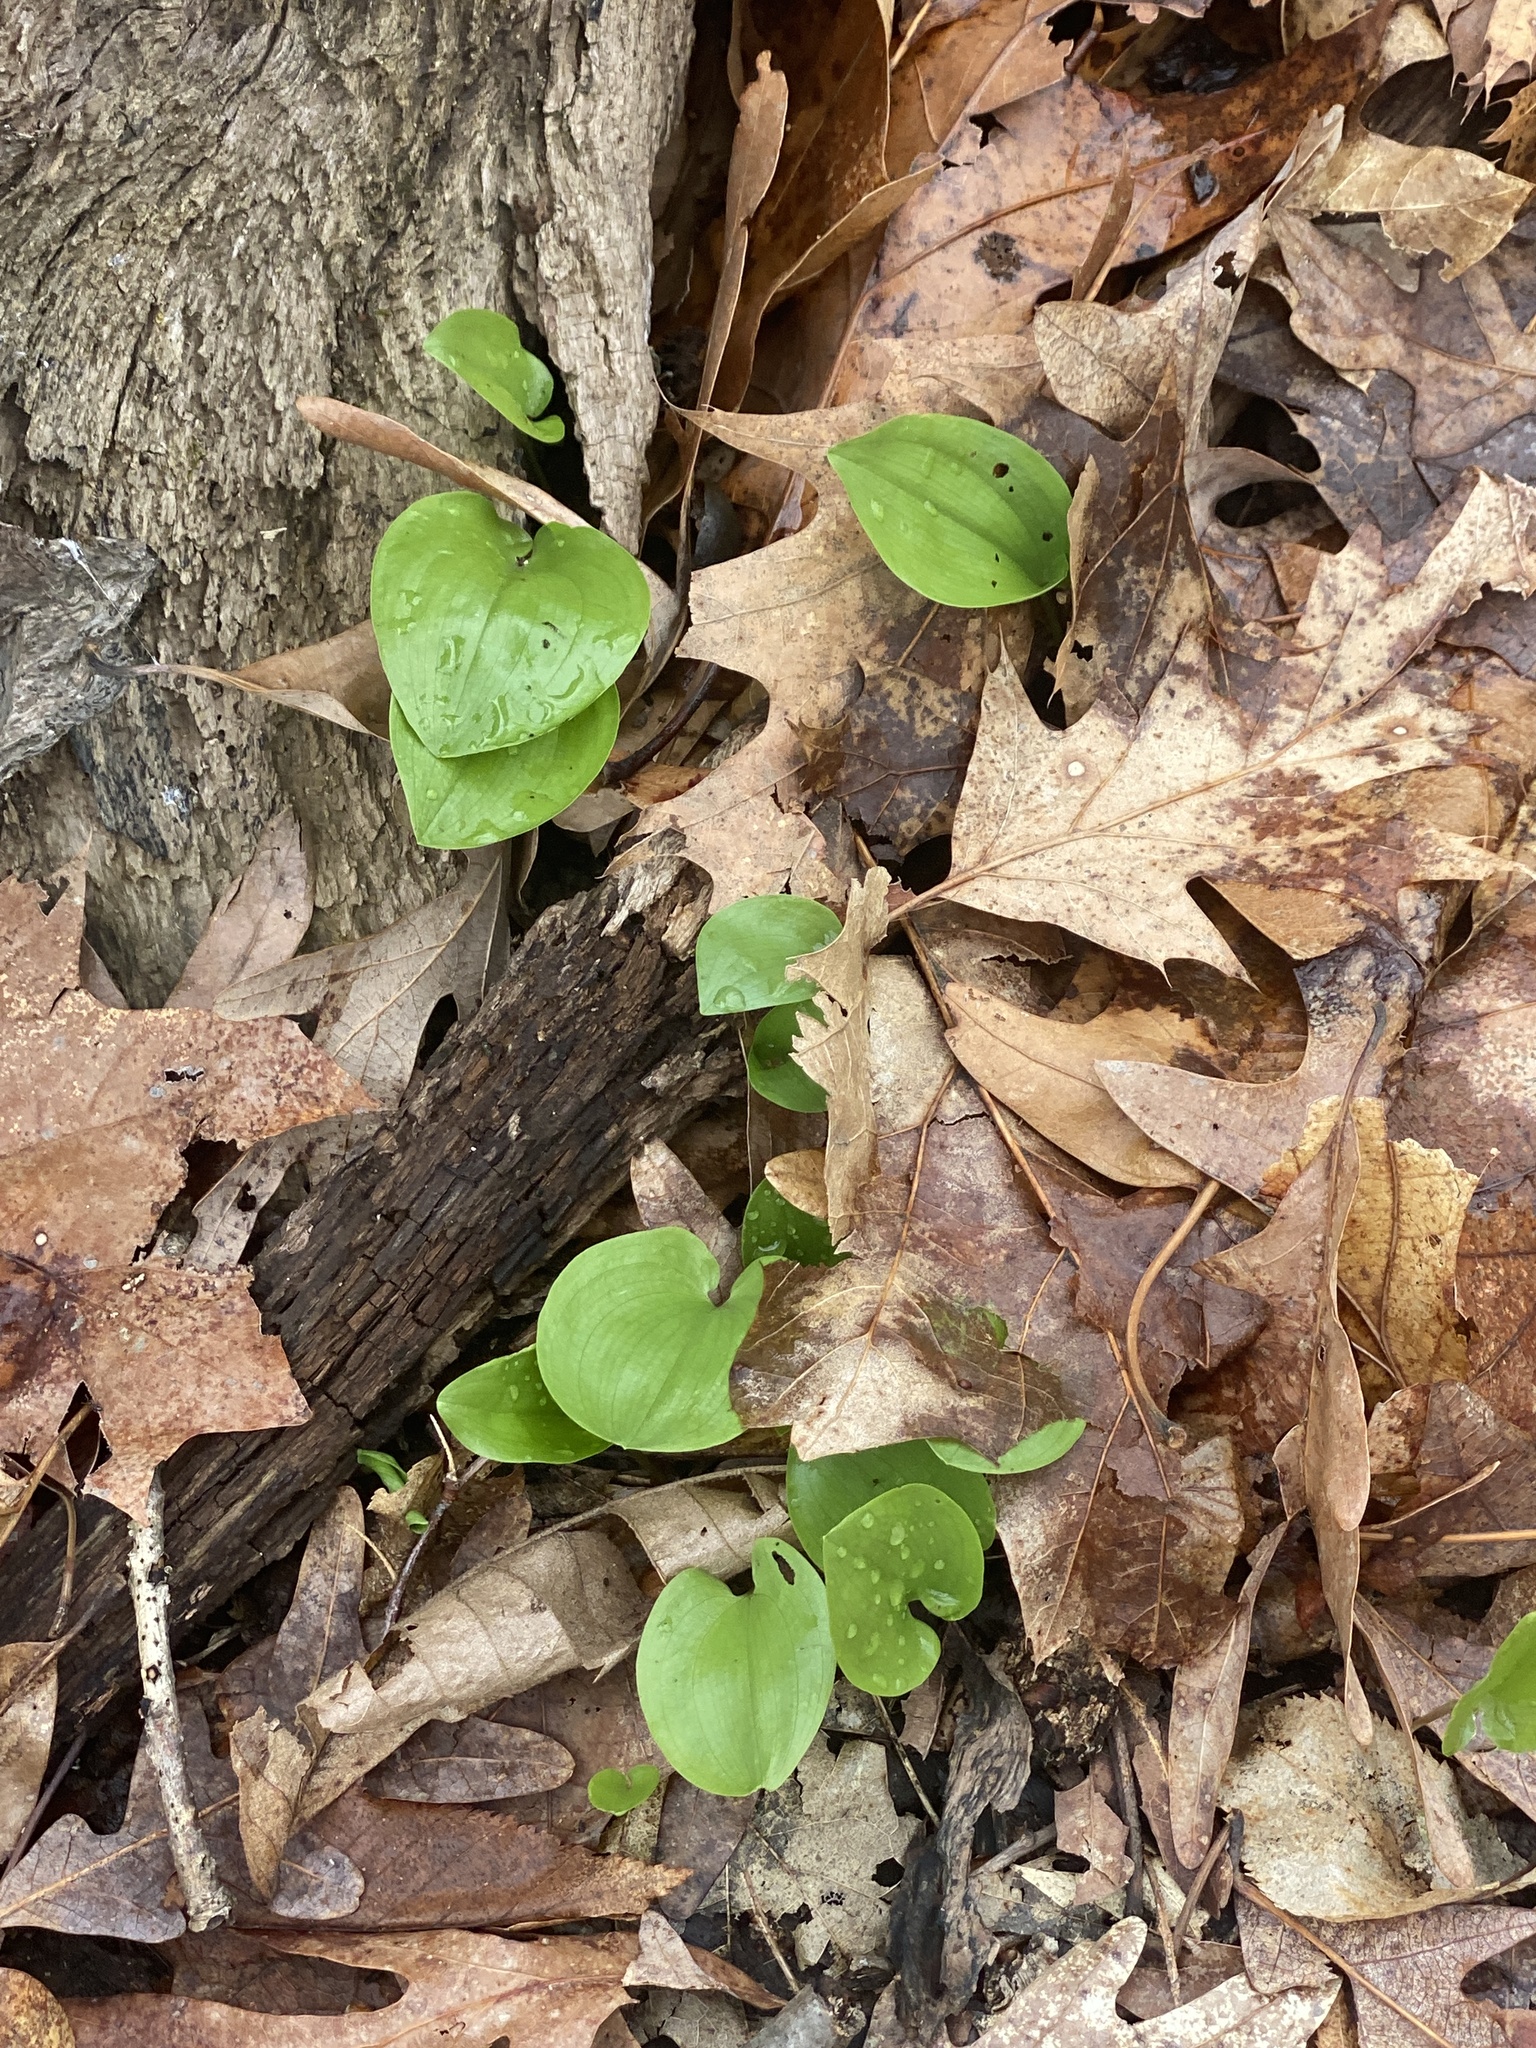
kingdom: Plantae
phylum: Tracheophyta
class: Liliopsida
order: Asparagales
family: Asparagaceae
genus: Maianthemum
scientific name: Maianthemum canadense
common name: False lily-of-the-valley
